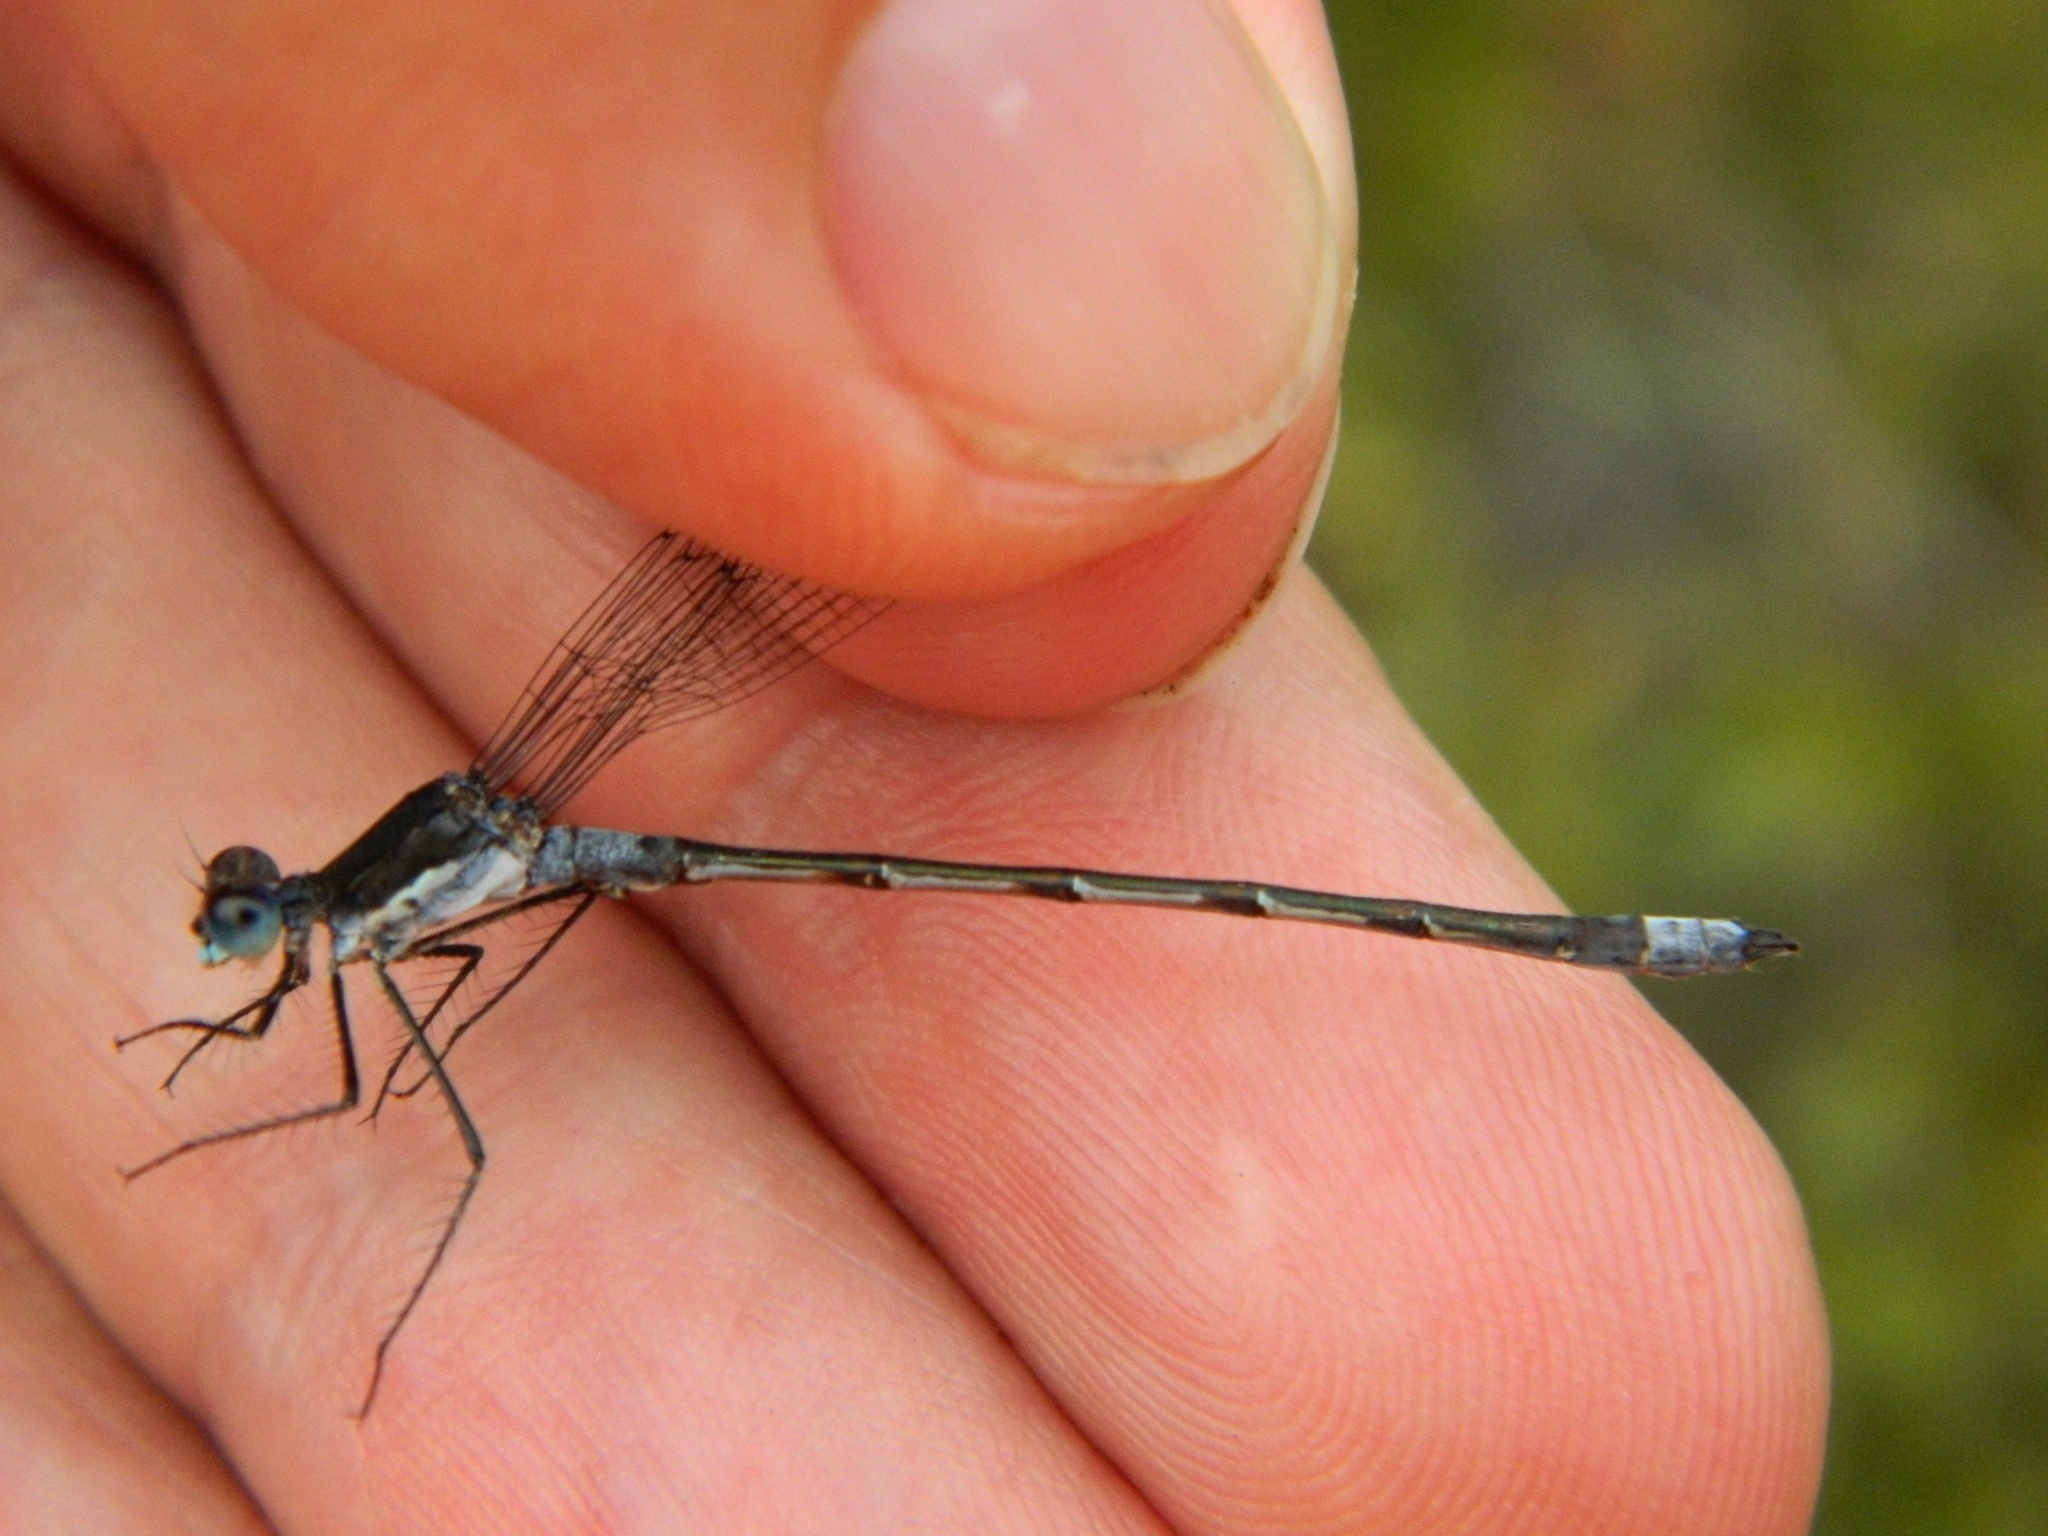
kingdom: Animalia
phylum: Arthropoda
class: Insecta
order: Odonata
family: Lestidae
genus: Lestes
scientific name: Lestes disjunctus
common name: Northern spreadwing
